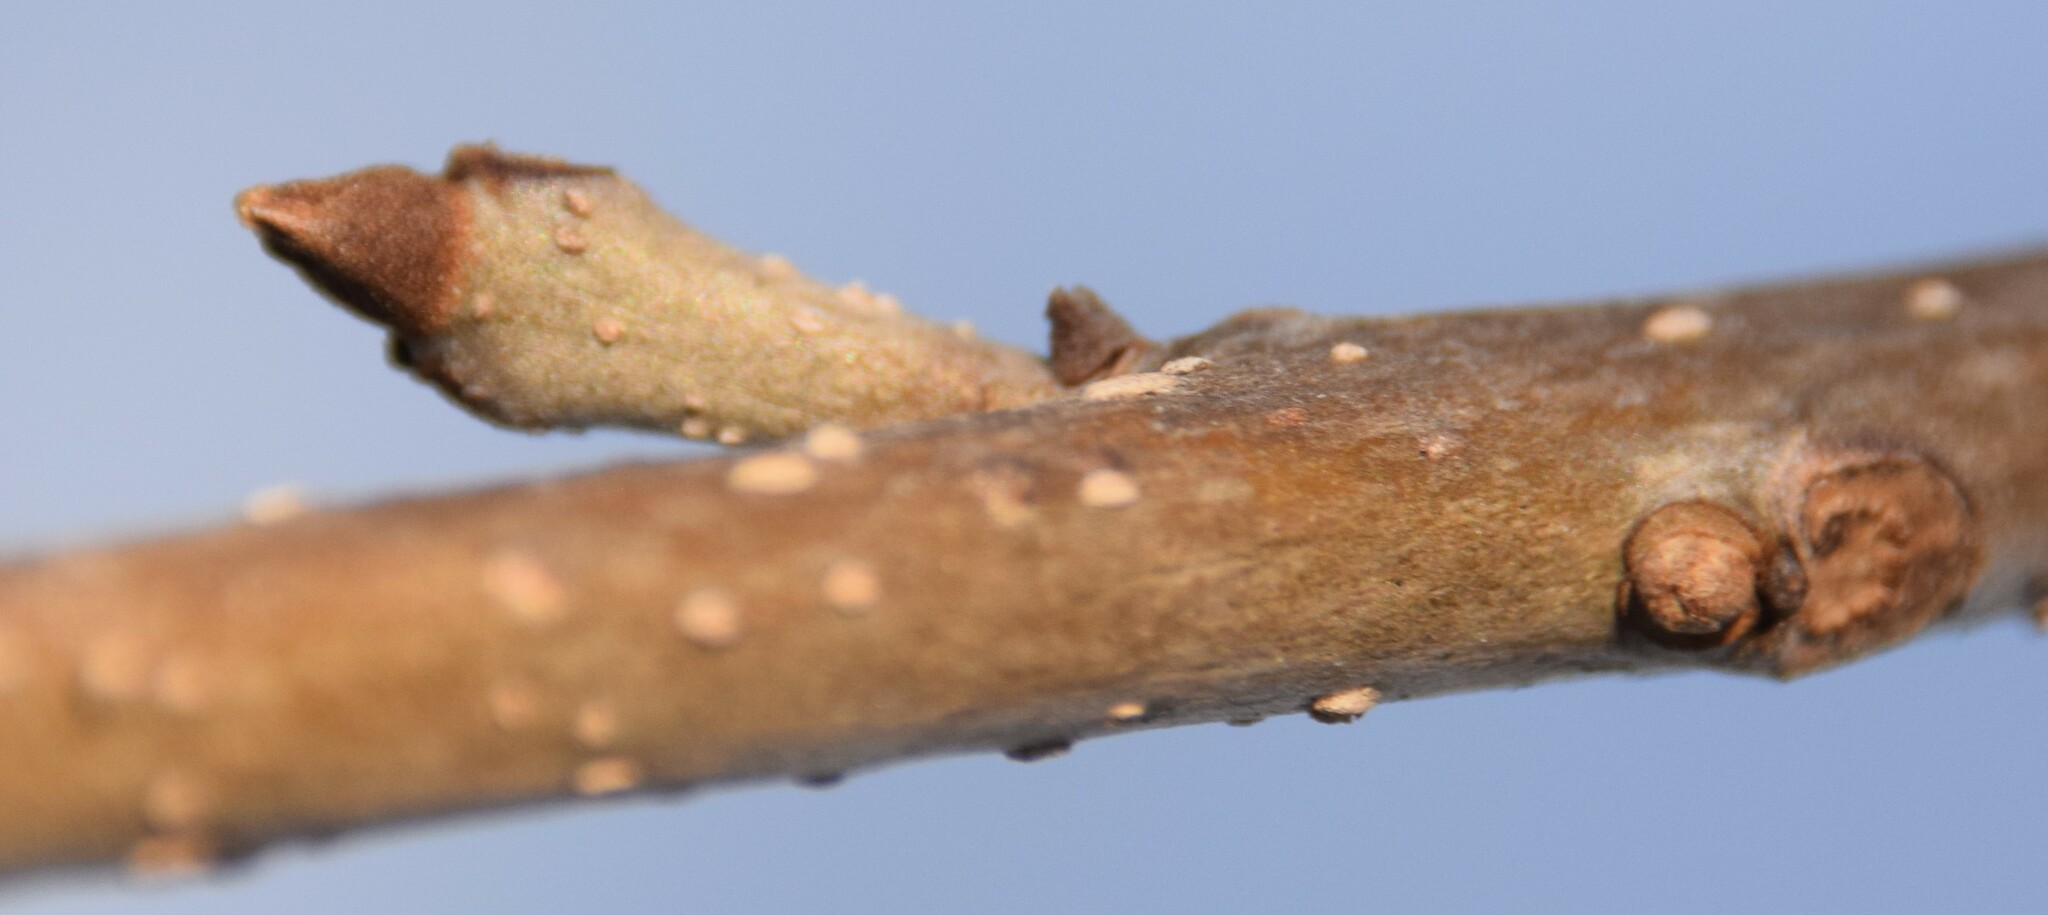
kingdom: Plantae
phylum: Tracheophyta
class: Magnoliopsida
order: Lamiales
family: Oleaceae
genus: Fraxinus
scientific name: Fraxinus nigra
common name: Black ash
